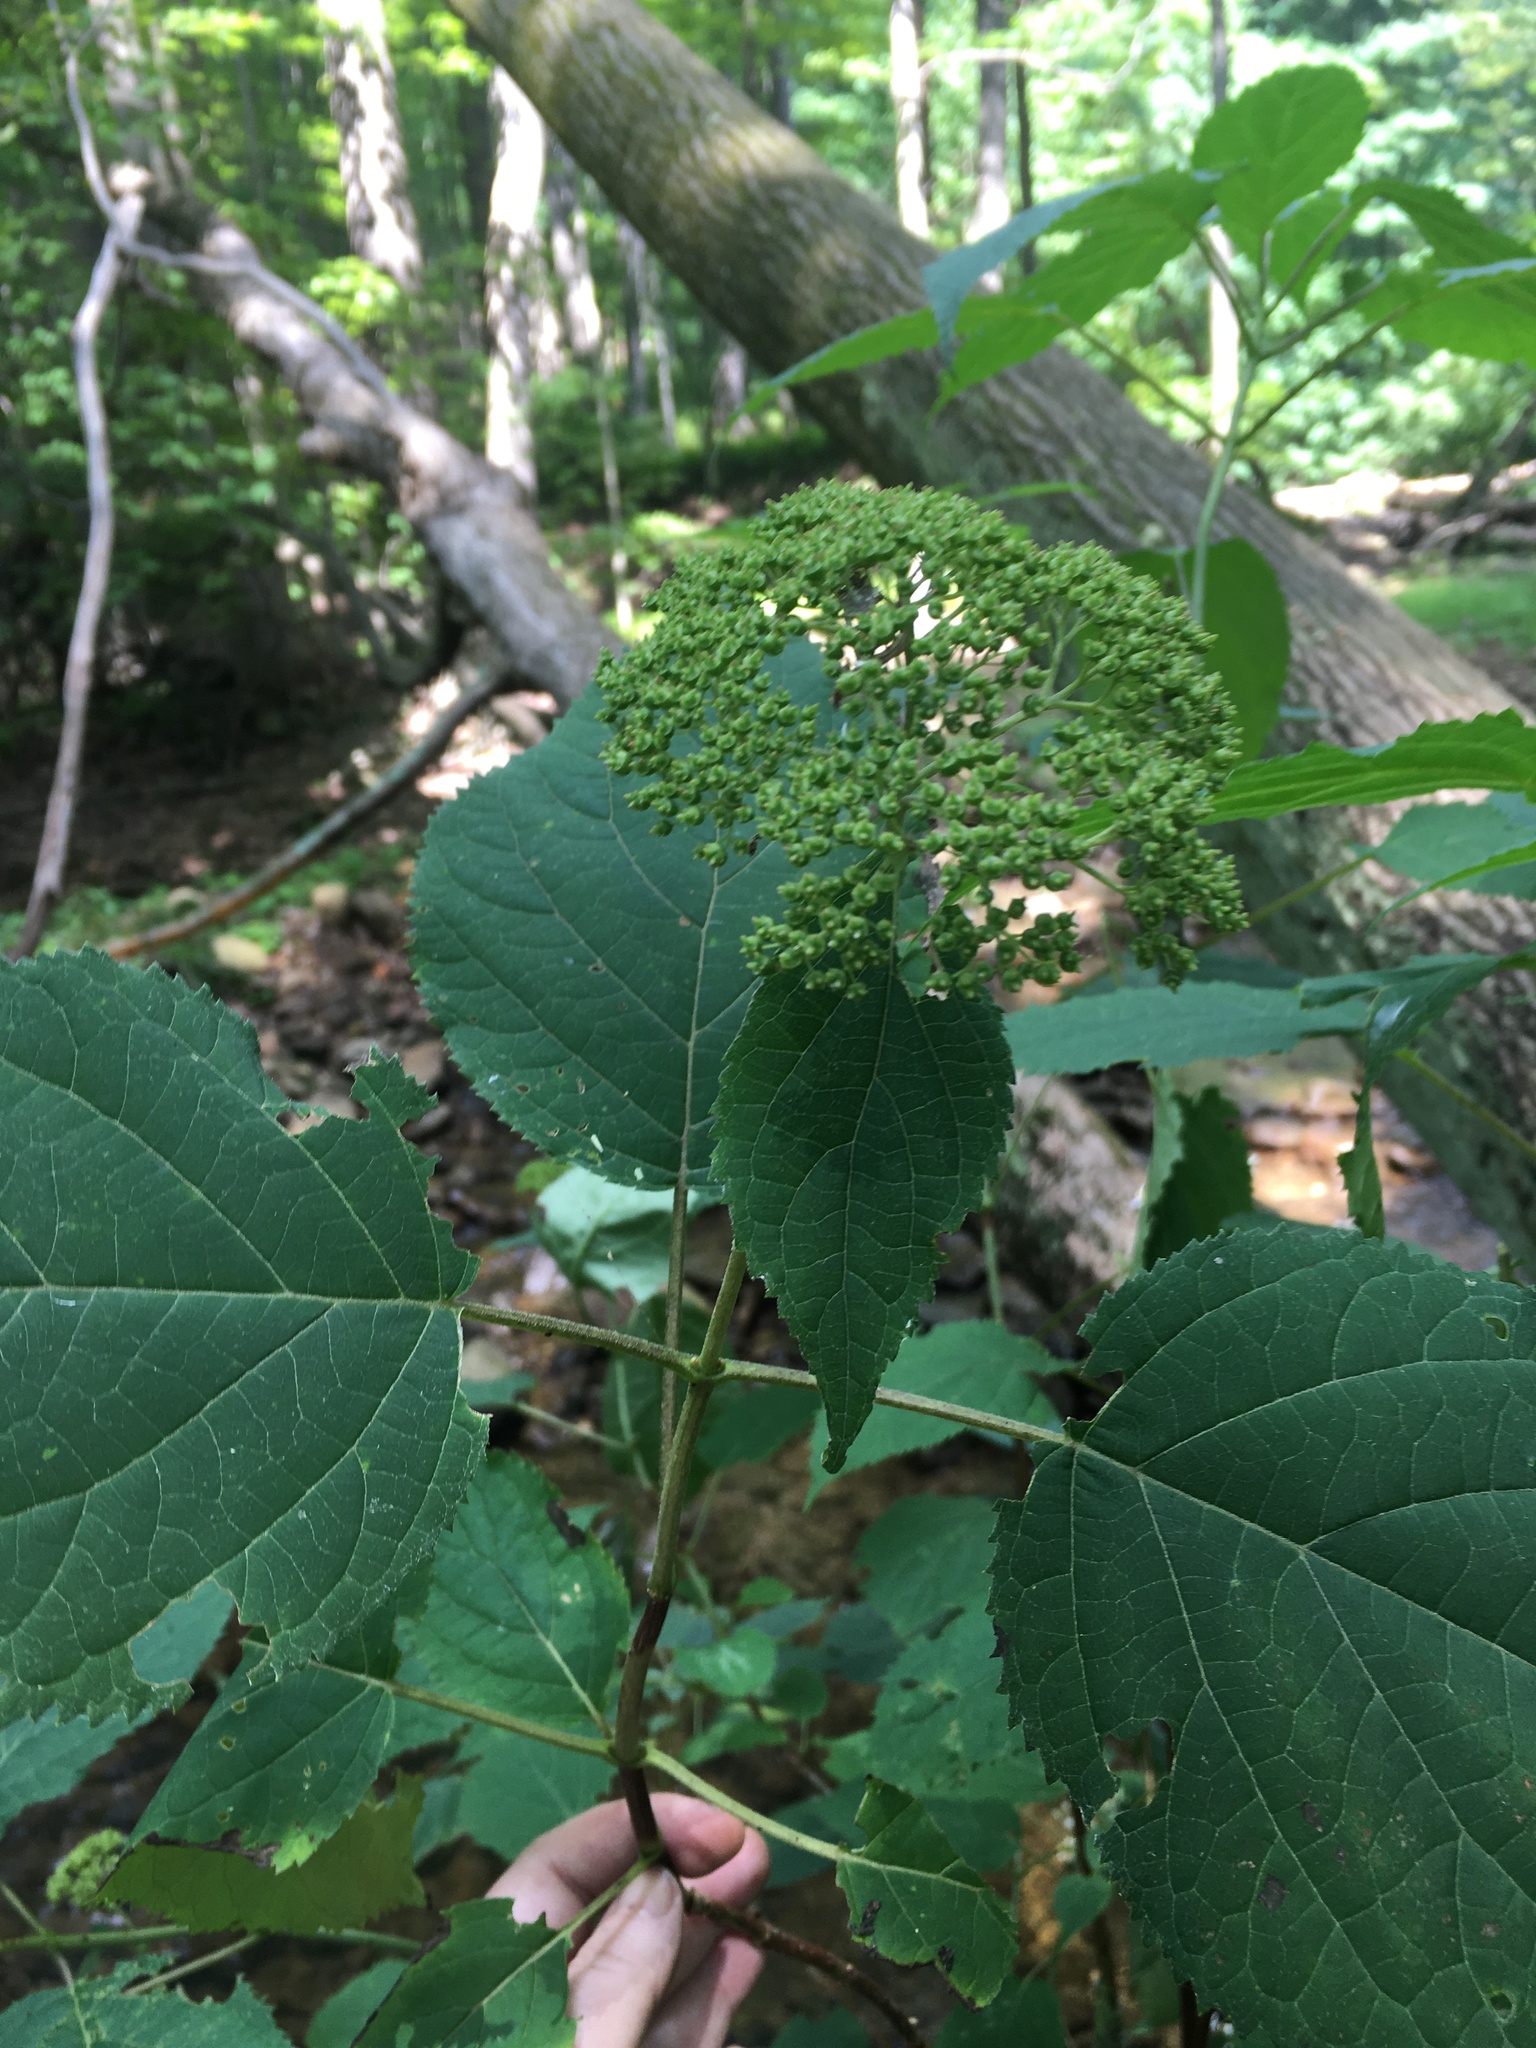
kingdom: Plantae
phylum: Tracheophyta
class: Magnoliopsida
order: Cornales
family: Hydrangeaceae
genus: Hydrangea
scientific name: Hydrangea arborescens
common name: Sevenbark
